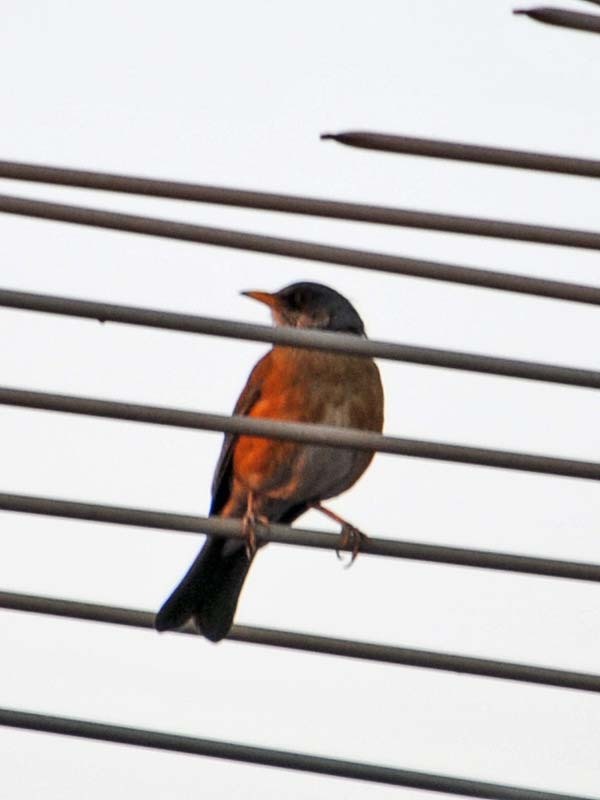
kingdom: Animalia
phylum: Chordata
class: Aves
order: Passeriformes
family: Turdidae
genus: Turdus
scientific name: Turdus rufopalliatus
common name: Rufous-backed robin
